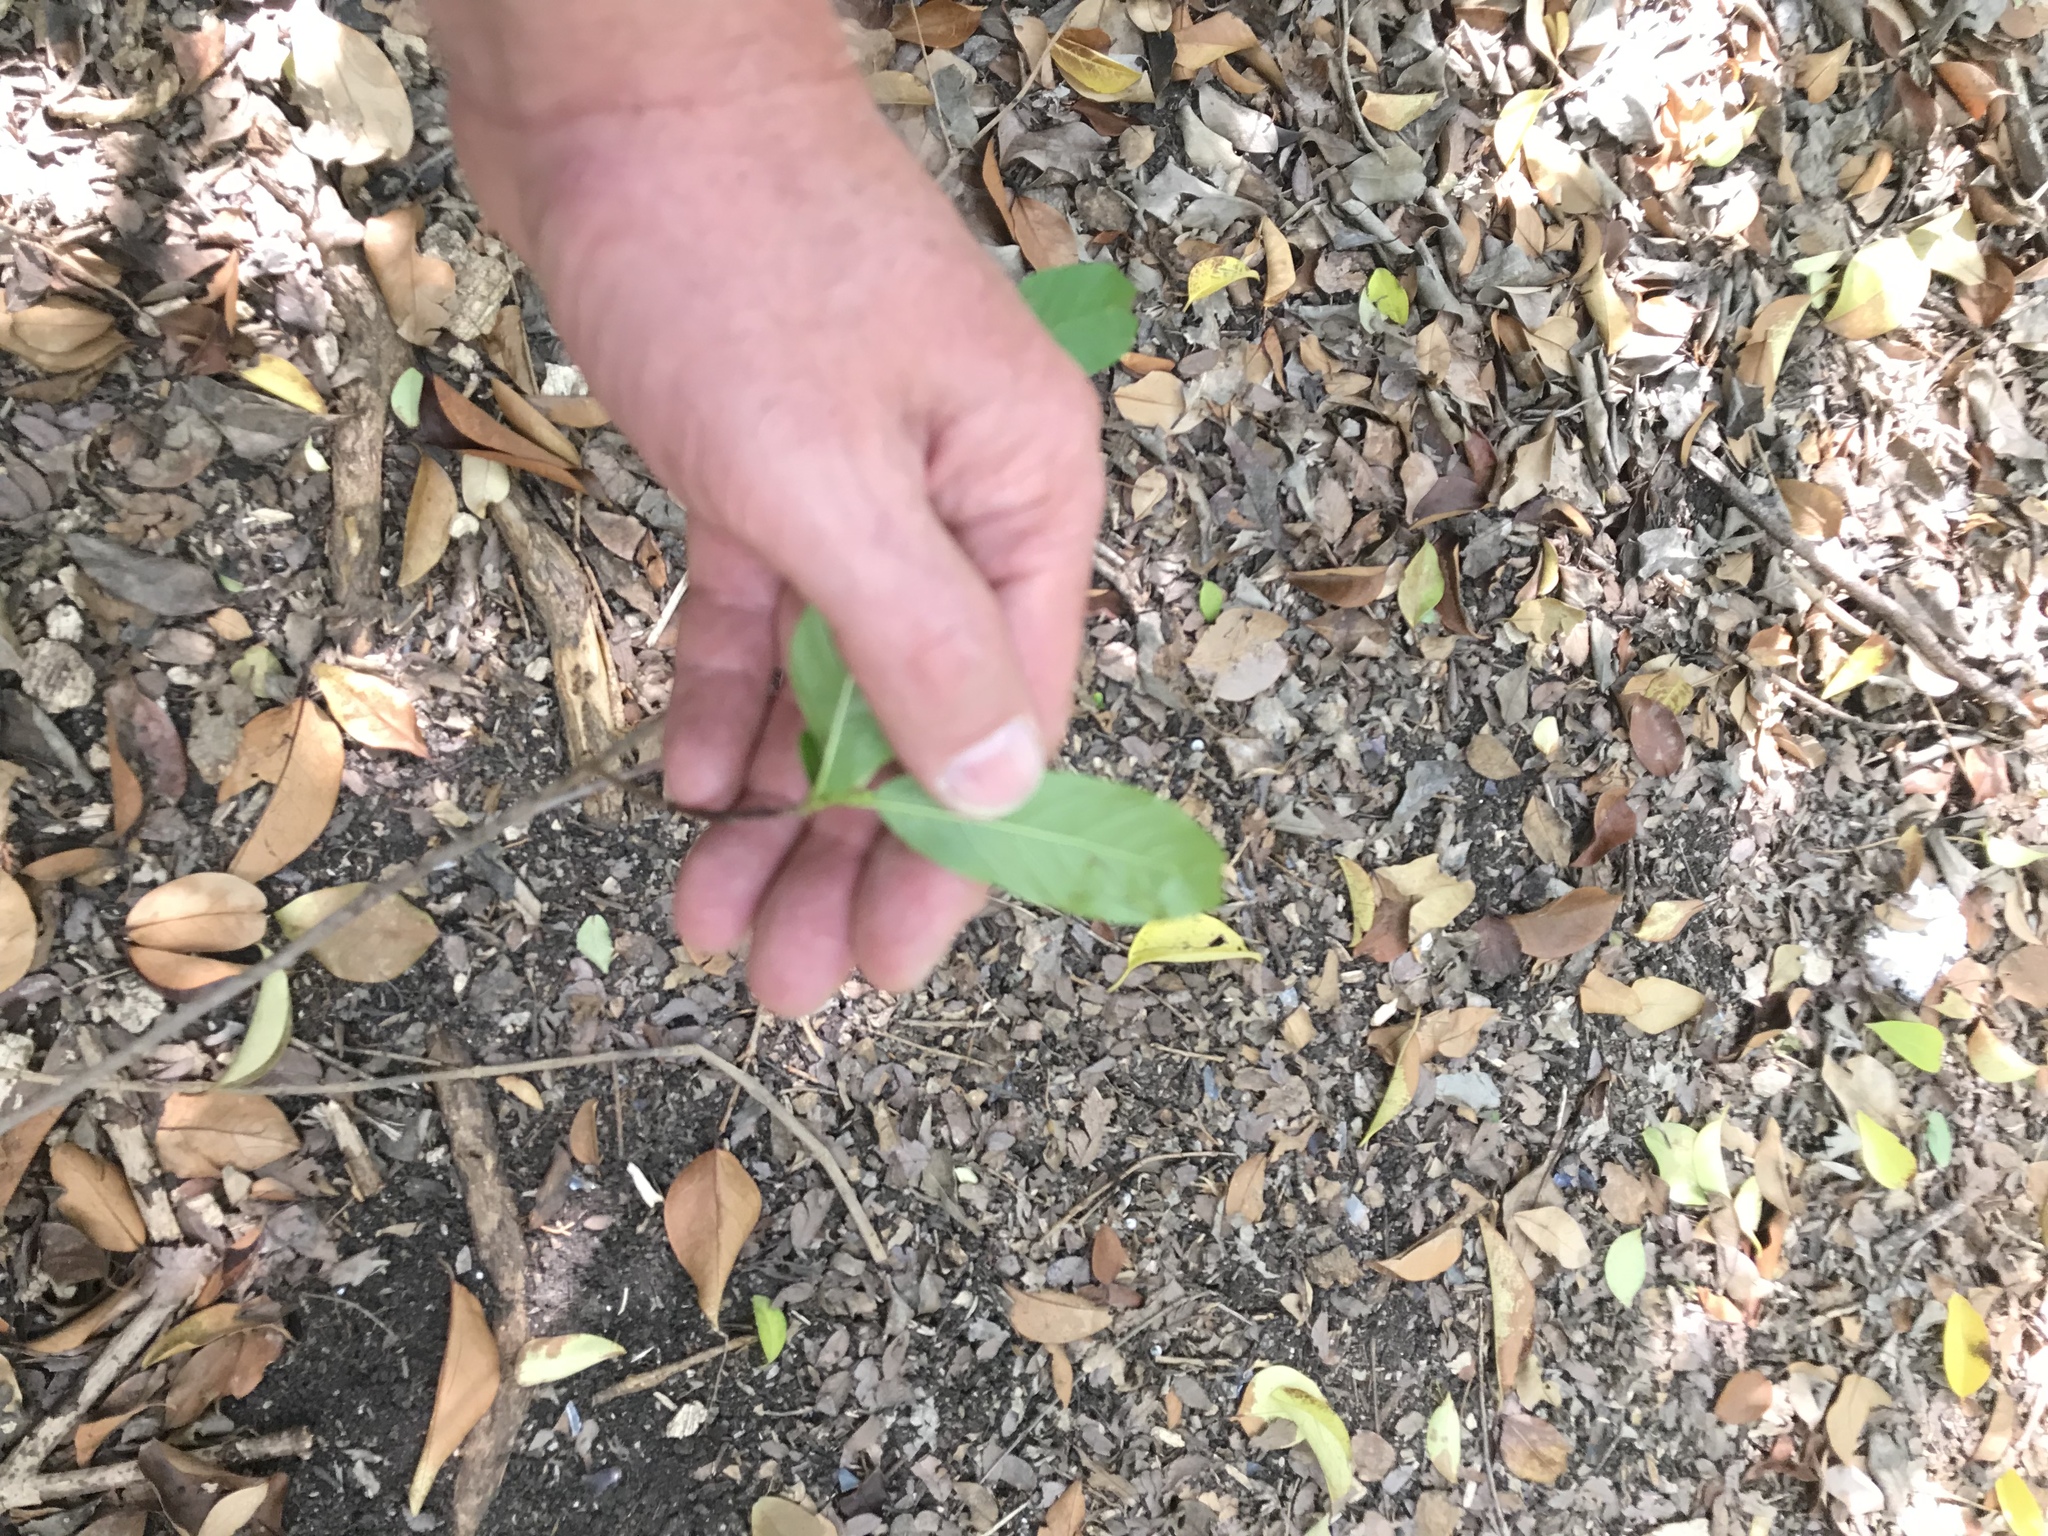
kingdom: Plantae
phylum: Tracheophyta
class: Magnoliopsida
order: Rosales
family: Rhamnaceae
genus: Frangula
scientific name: Frangula caroliniana
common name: Carolina buckthorn
